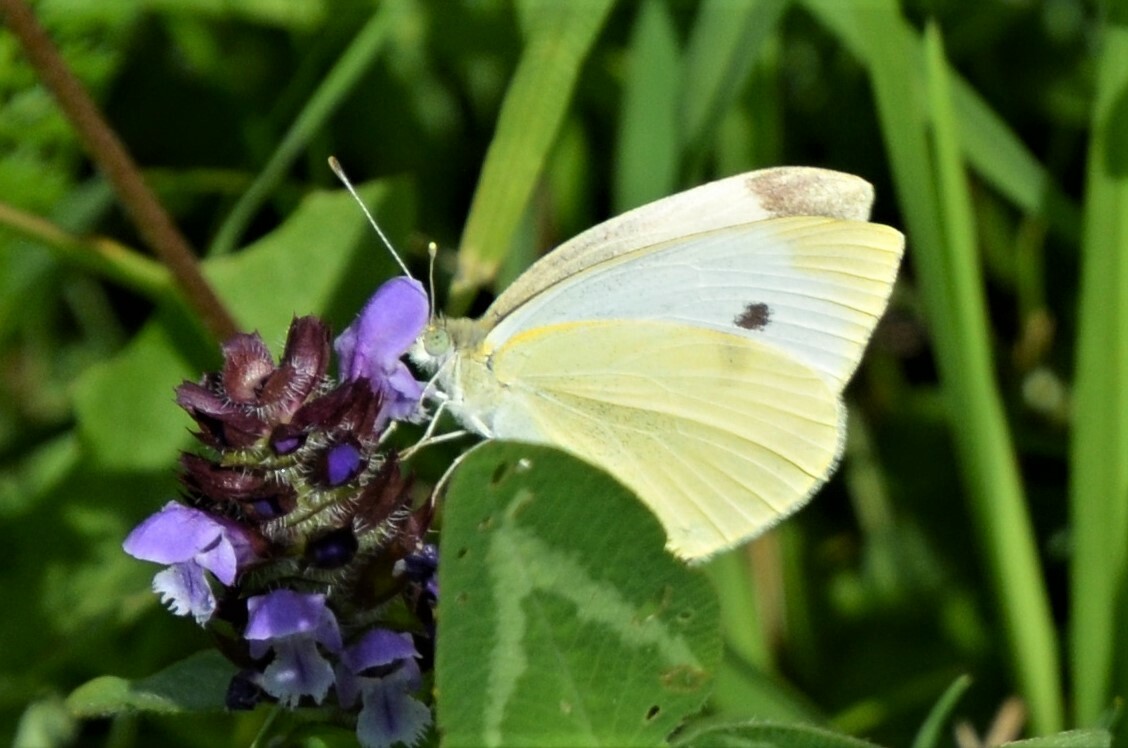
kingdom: Animalia
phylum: Arthropoda
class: Insecta
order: Lepidoptera
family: Pieridae
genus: Pieris
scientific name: Pieris rapae
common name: Small white
